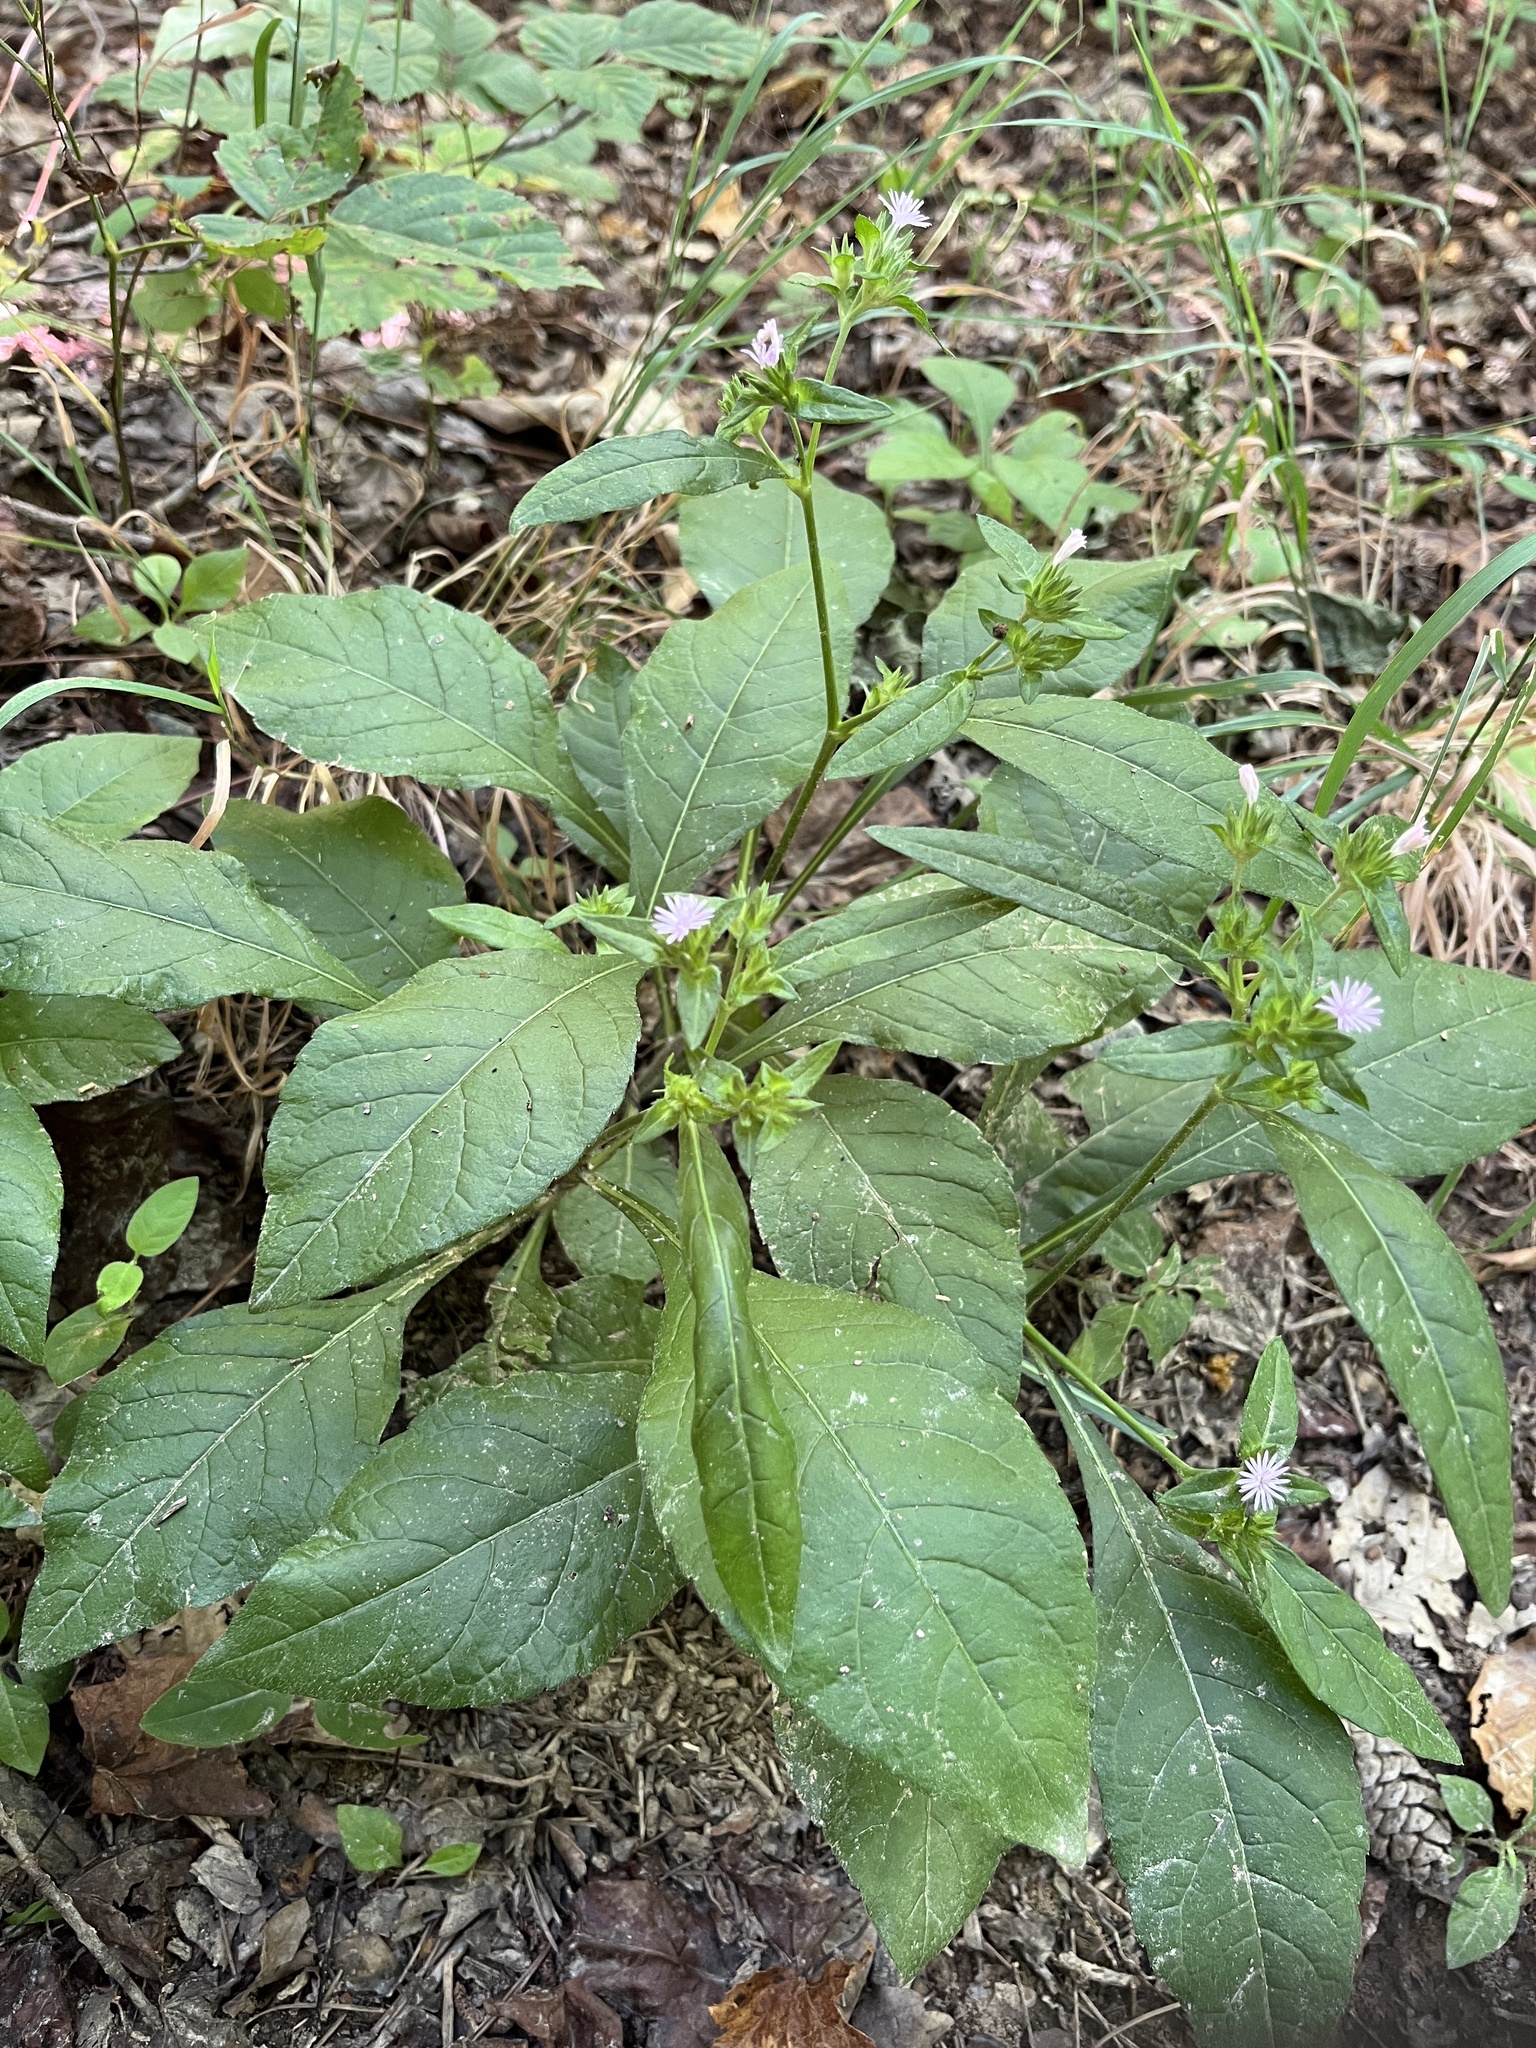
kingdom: Plantae
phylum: Tracheophyta
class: Magnoliopsida
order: Asterales
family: Asteraceae
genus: Elephantopus
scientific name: Elephantopus carolinianus
